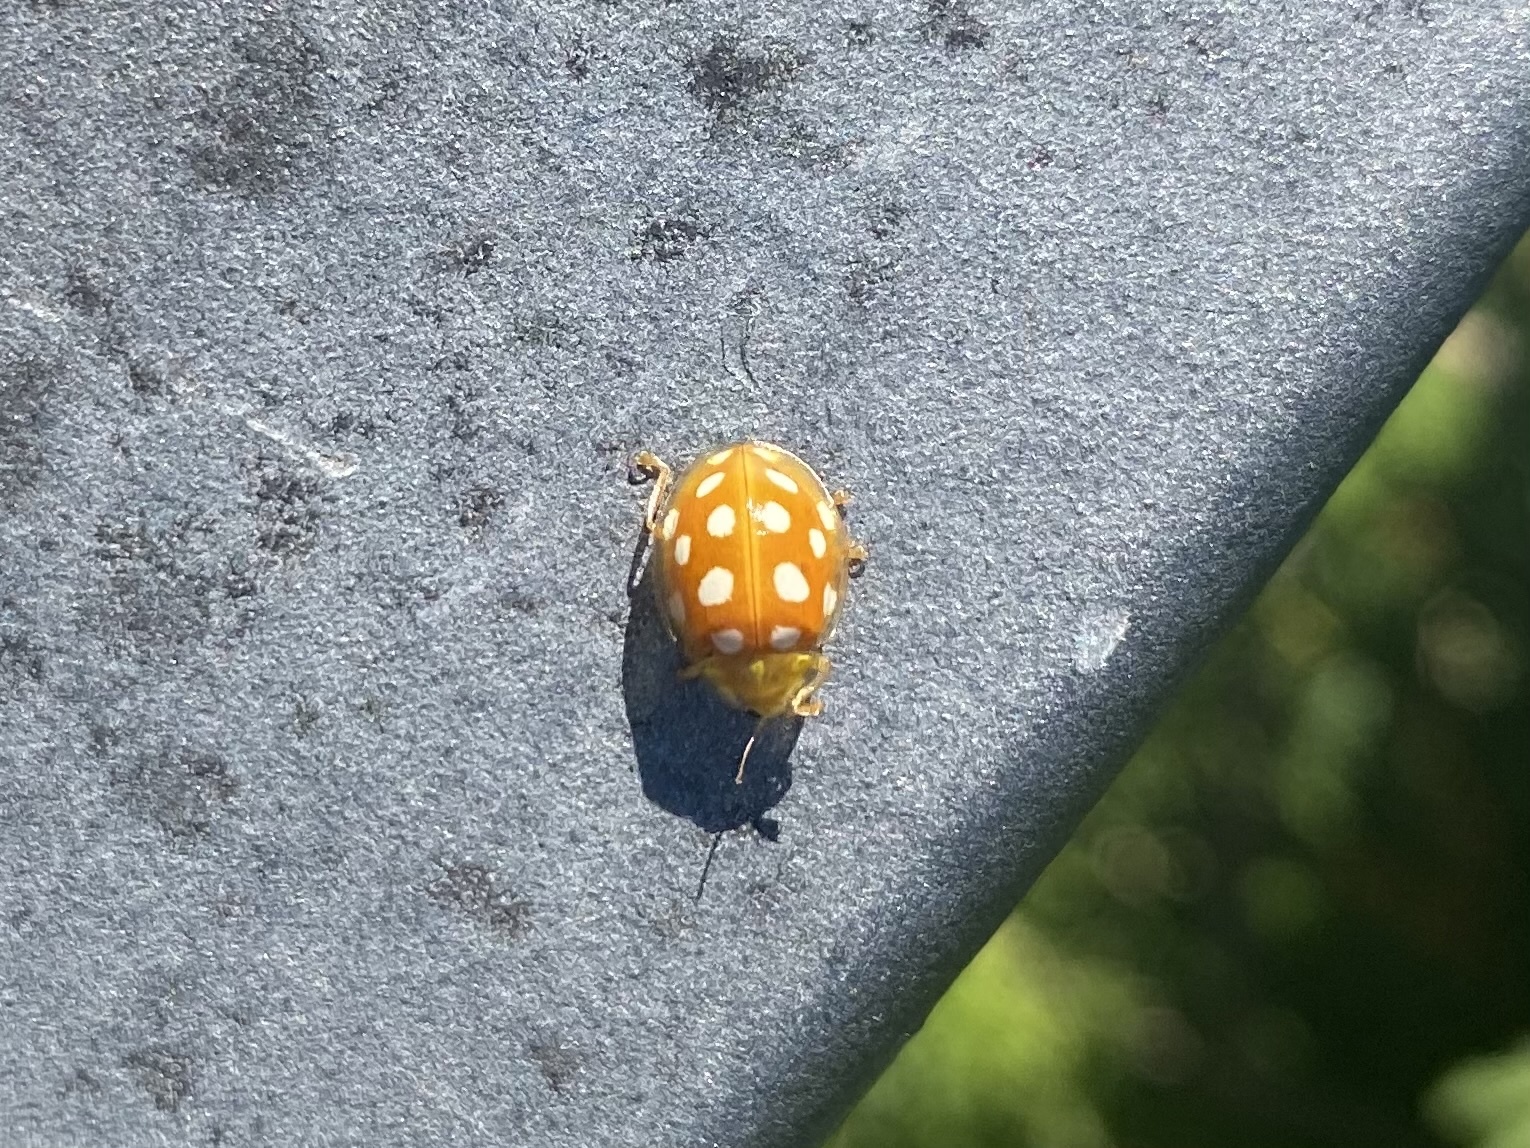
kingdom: Animalia
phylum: Arthropoda
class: Insecta
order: Coleoptera
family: Coccinellidae
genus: Halyzia
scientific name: Halyzia sedecimguttata
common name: Orange ladybird
